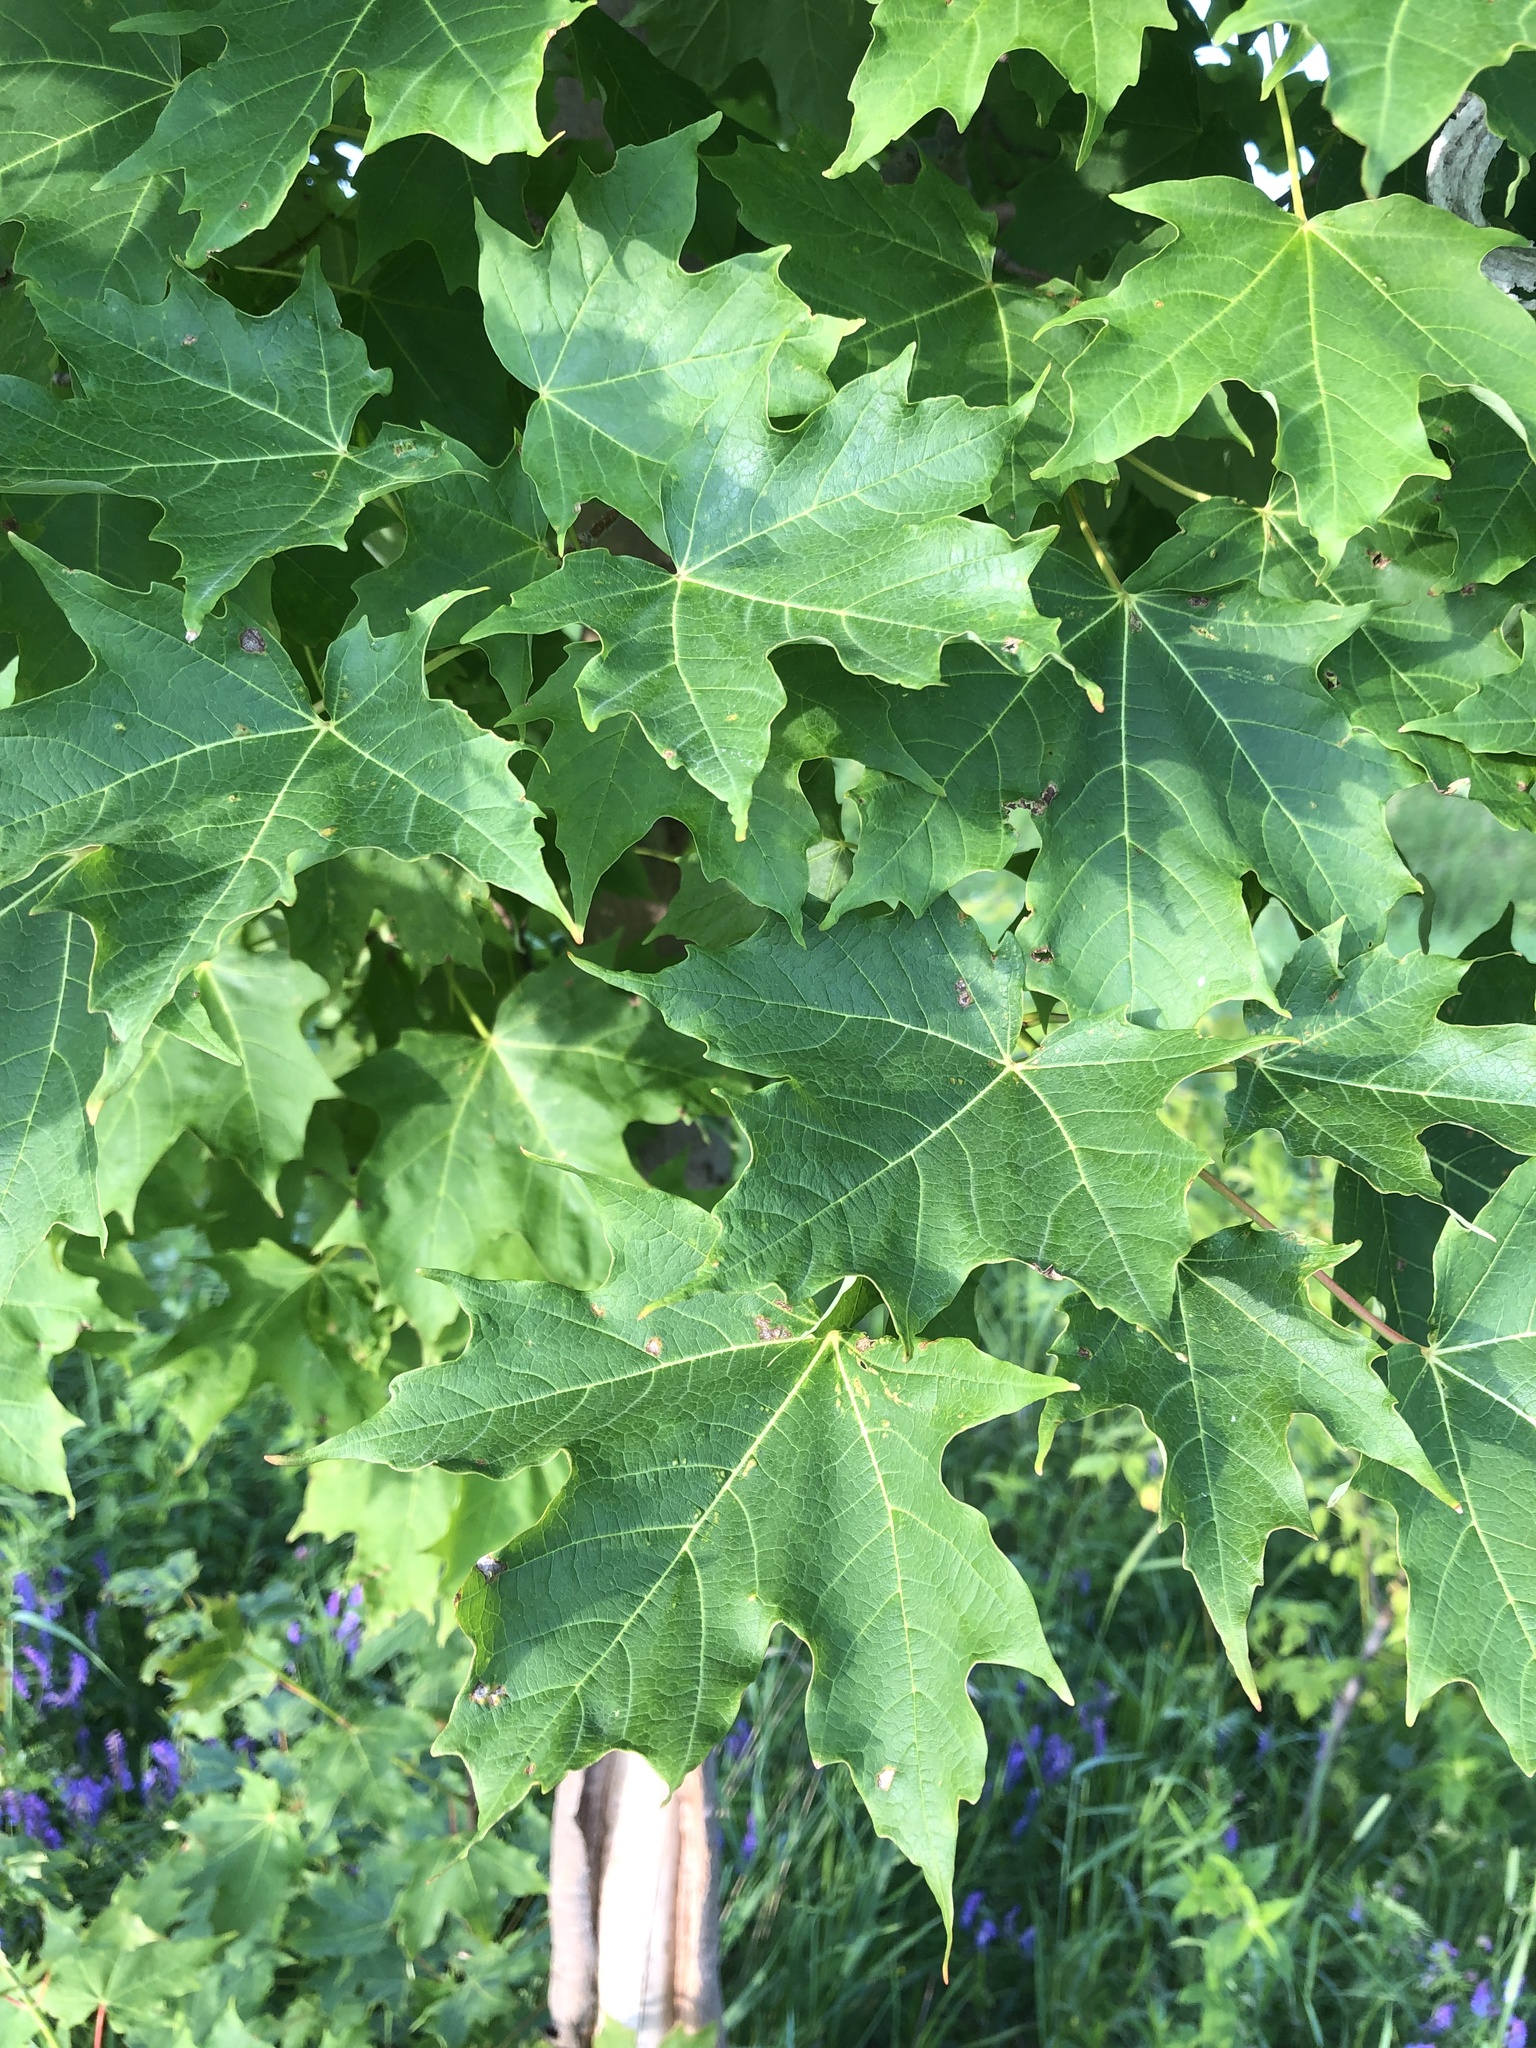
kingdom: Plantae
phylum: Tracheophyta
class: Magnoliopsida
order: Sapindales
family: Sapindaceae
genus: Acer
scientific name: Acer saccharum
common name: Sugar maple
